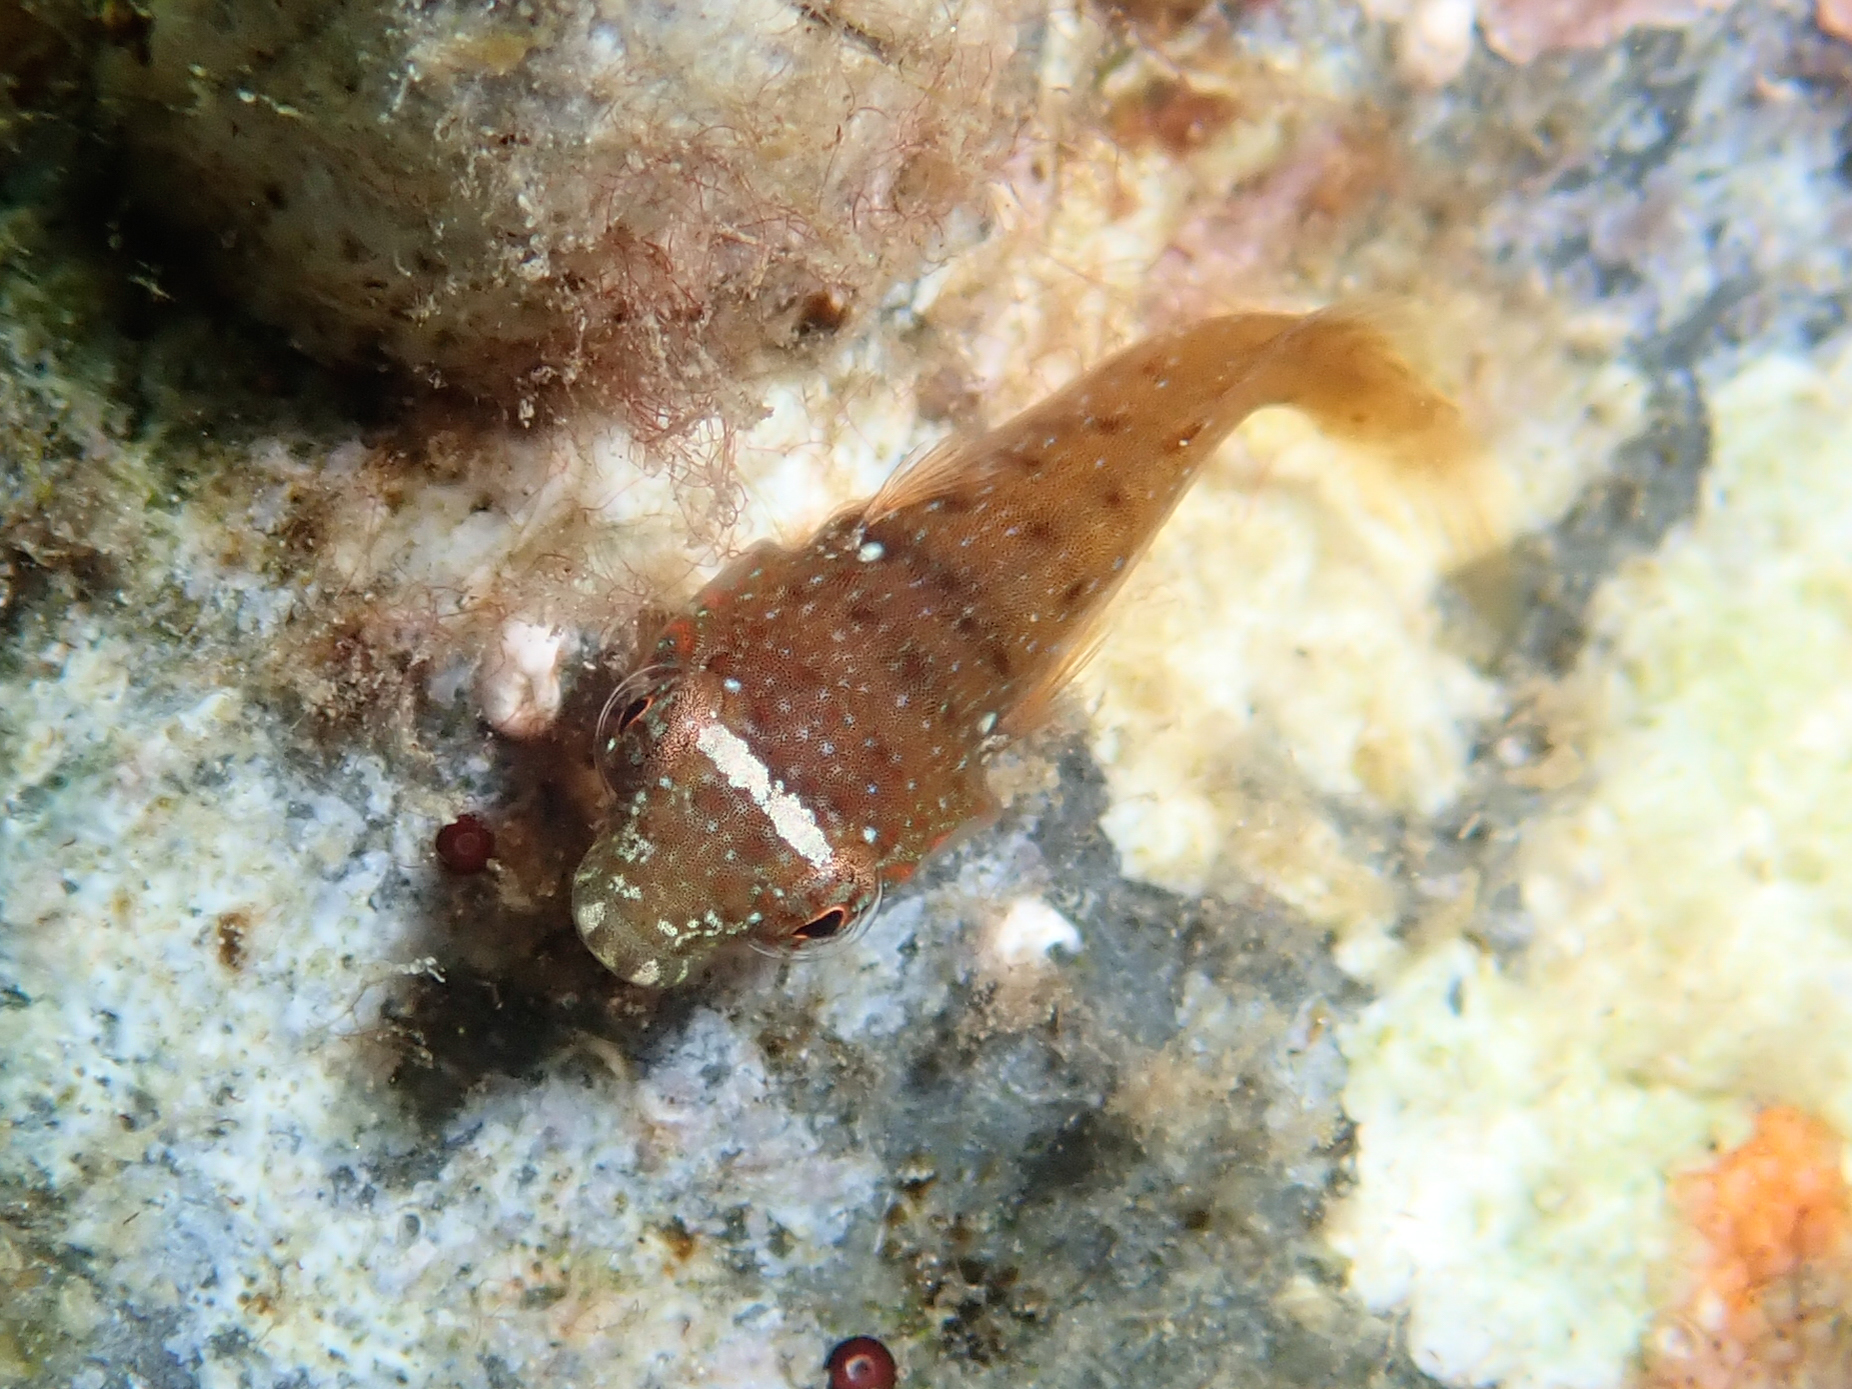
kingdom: Animalia
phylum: Chordata
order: Gobiesociformes
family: Gobiesocidae
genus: Lepadogaster
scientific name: Lepadogaster candolii
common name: Connemarra clingfish
